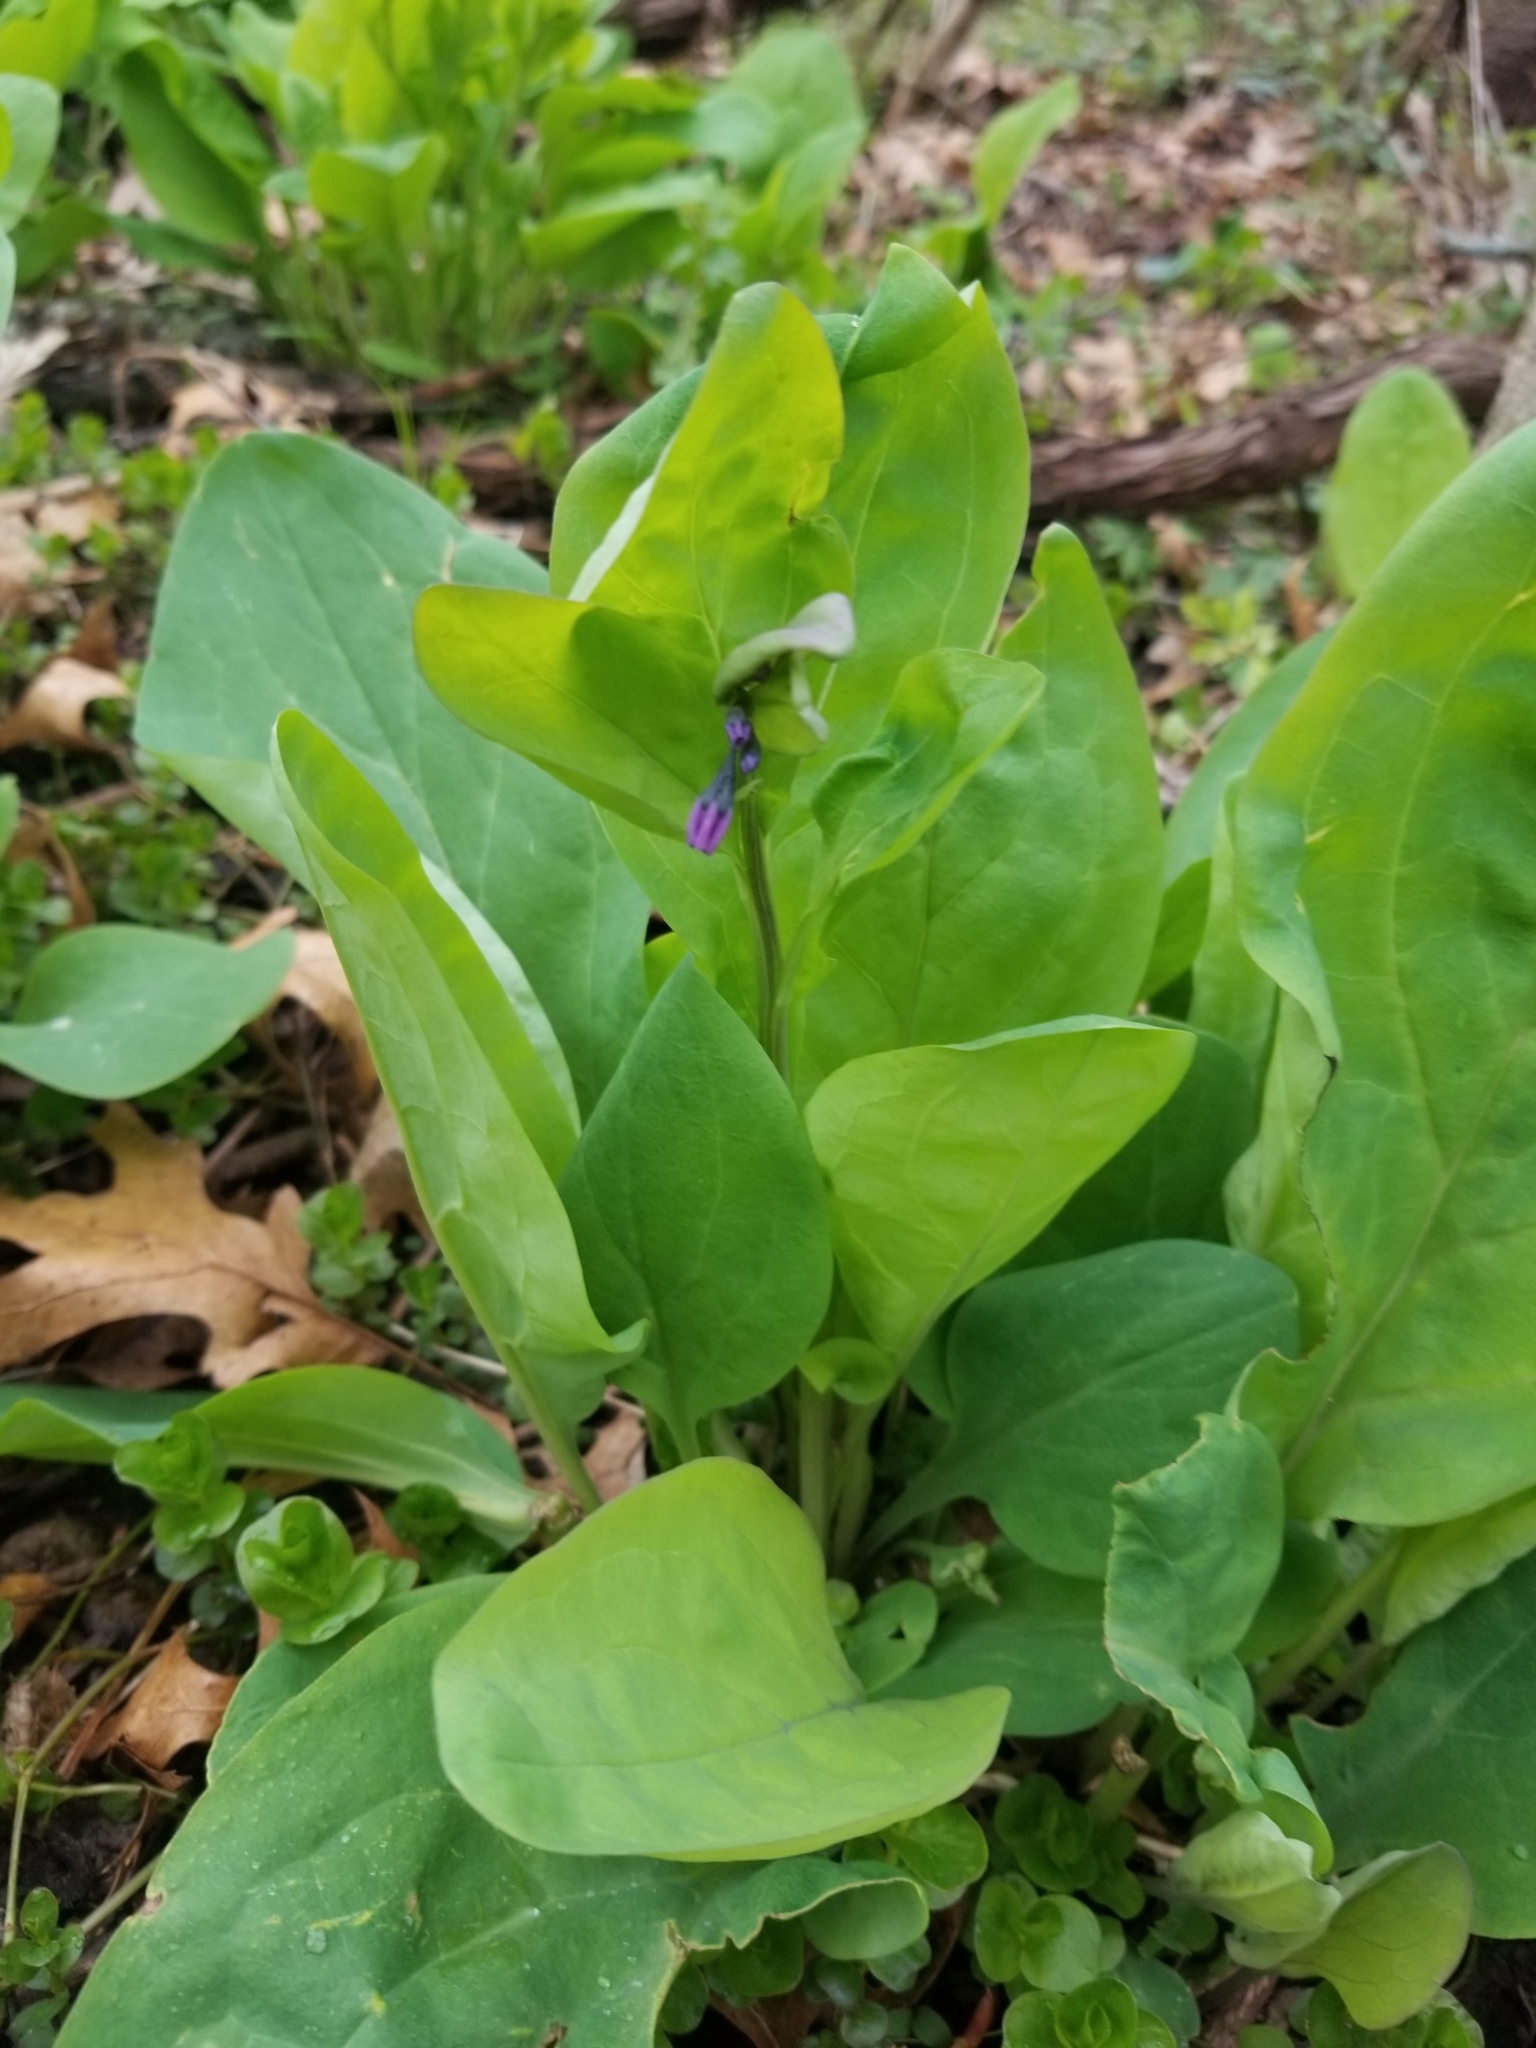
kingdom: Plantae
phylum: Tracheophyta
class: Magnoliopsida
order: Boraginales
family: Boraginaceae
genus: Mertensia
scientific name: Mertensia virginica
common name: Virginia bluebells
